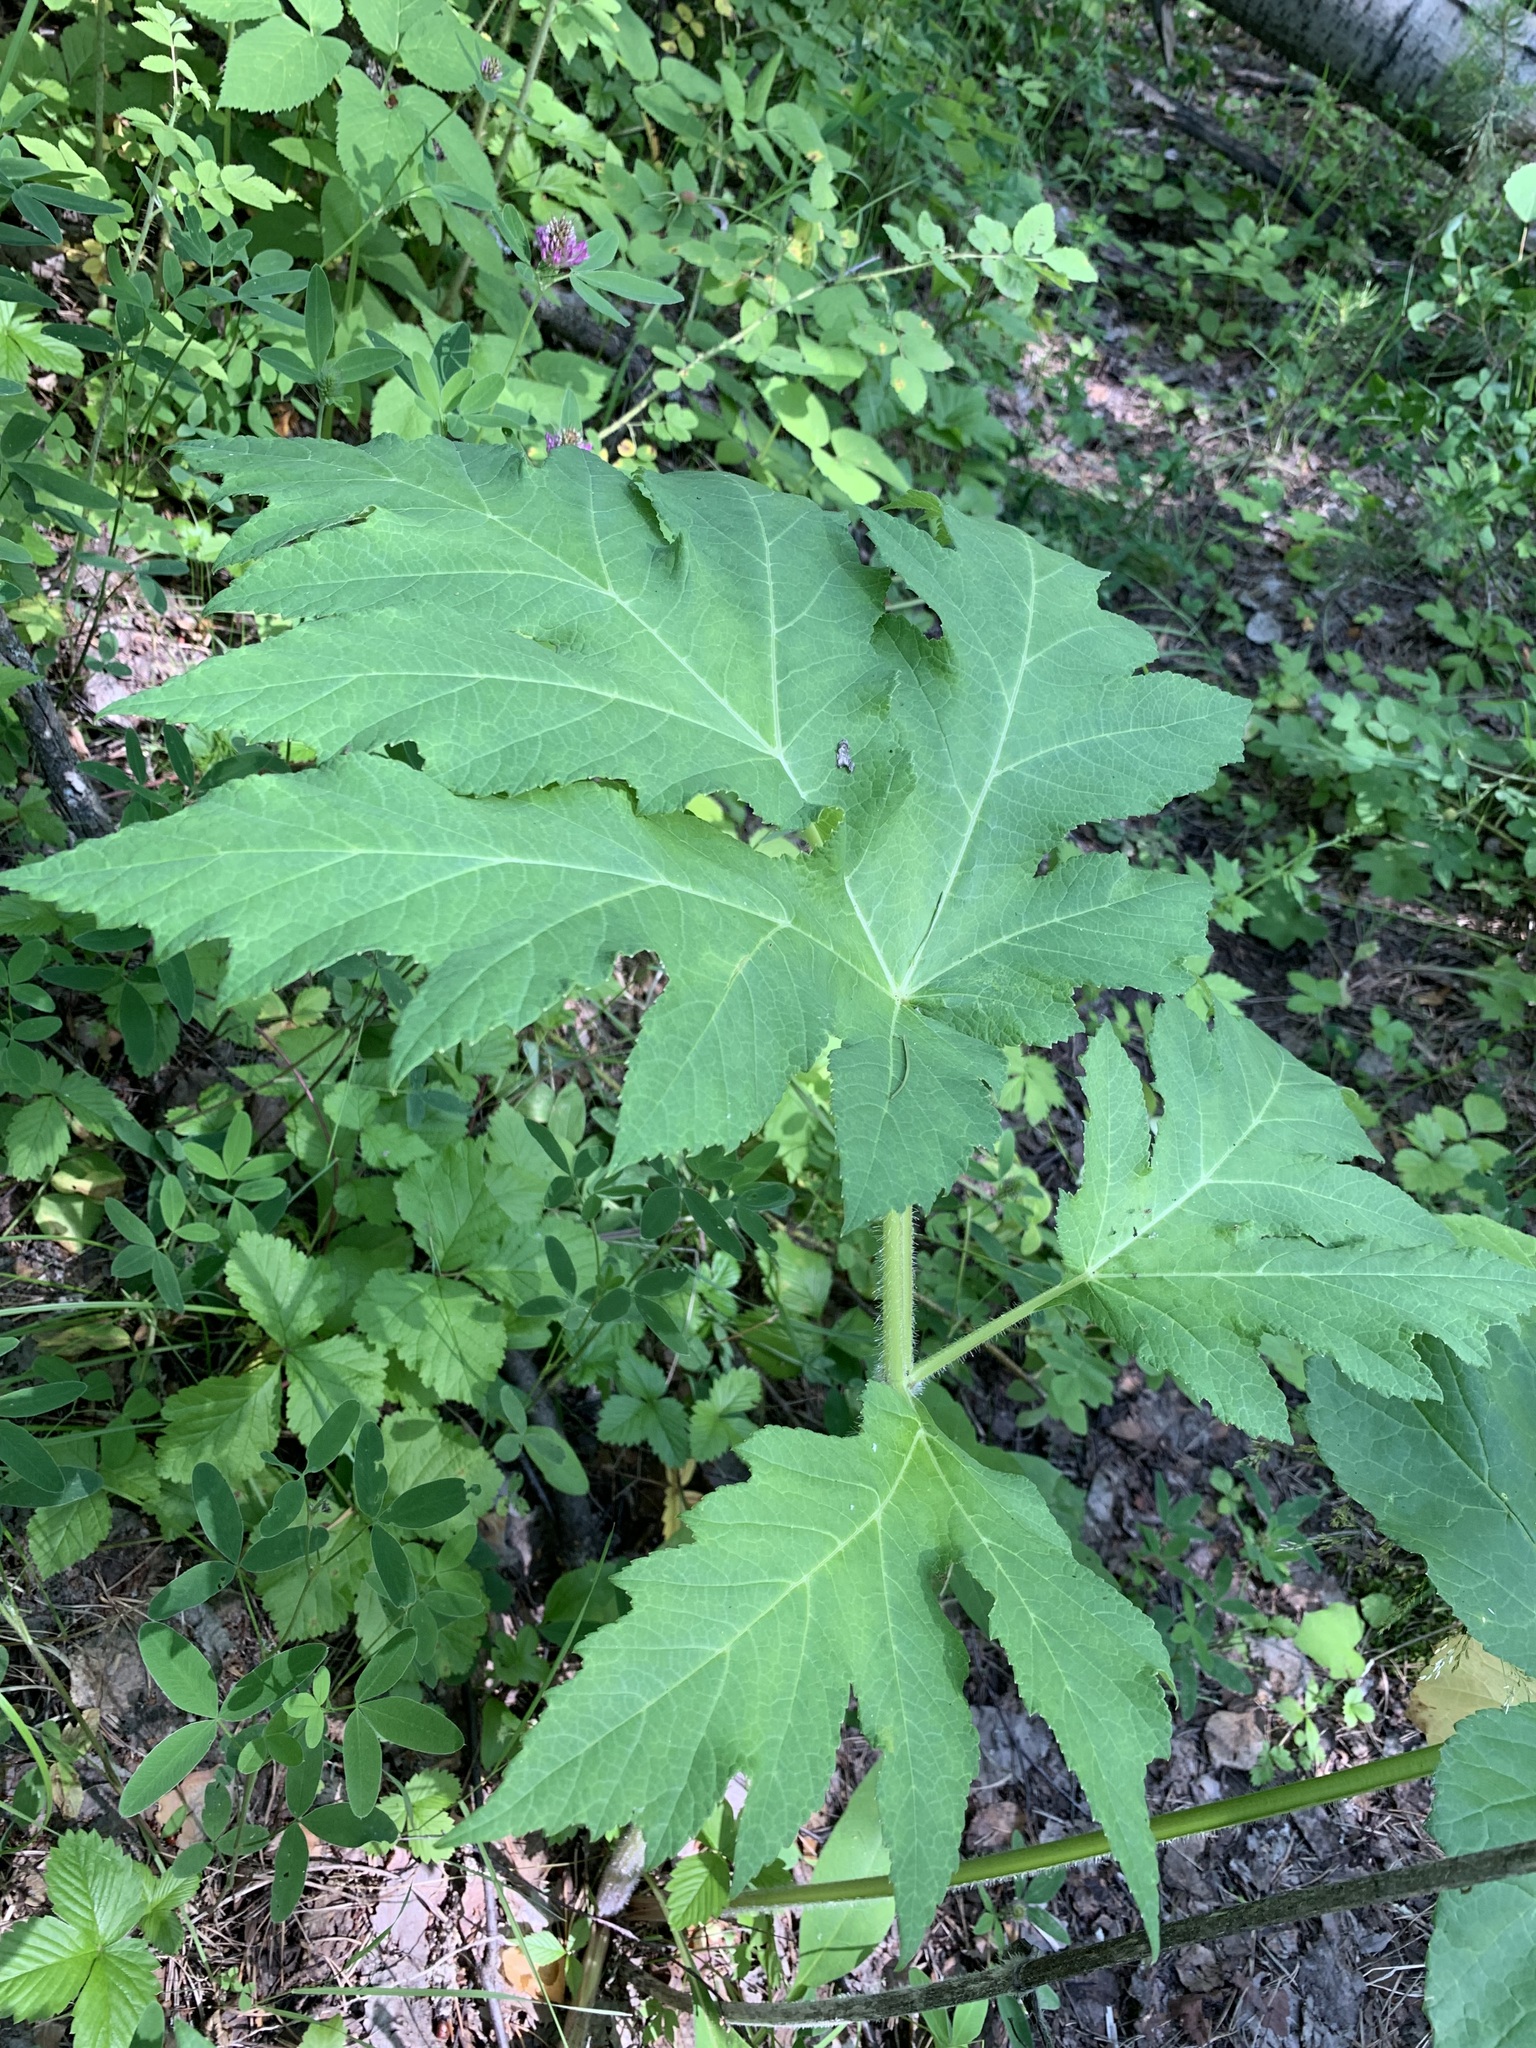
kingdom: Plantae
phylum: Tracheophyta
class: Magnoliopsida
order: Apiales
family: Apiaceae
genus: Heracleum
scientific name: Heracleum sphondylium
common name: Hogweed
